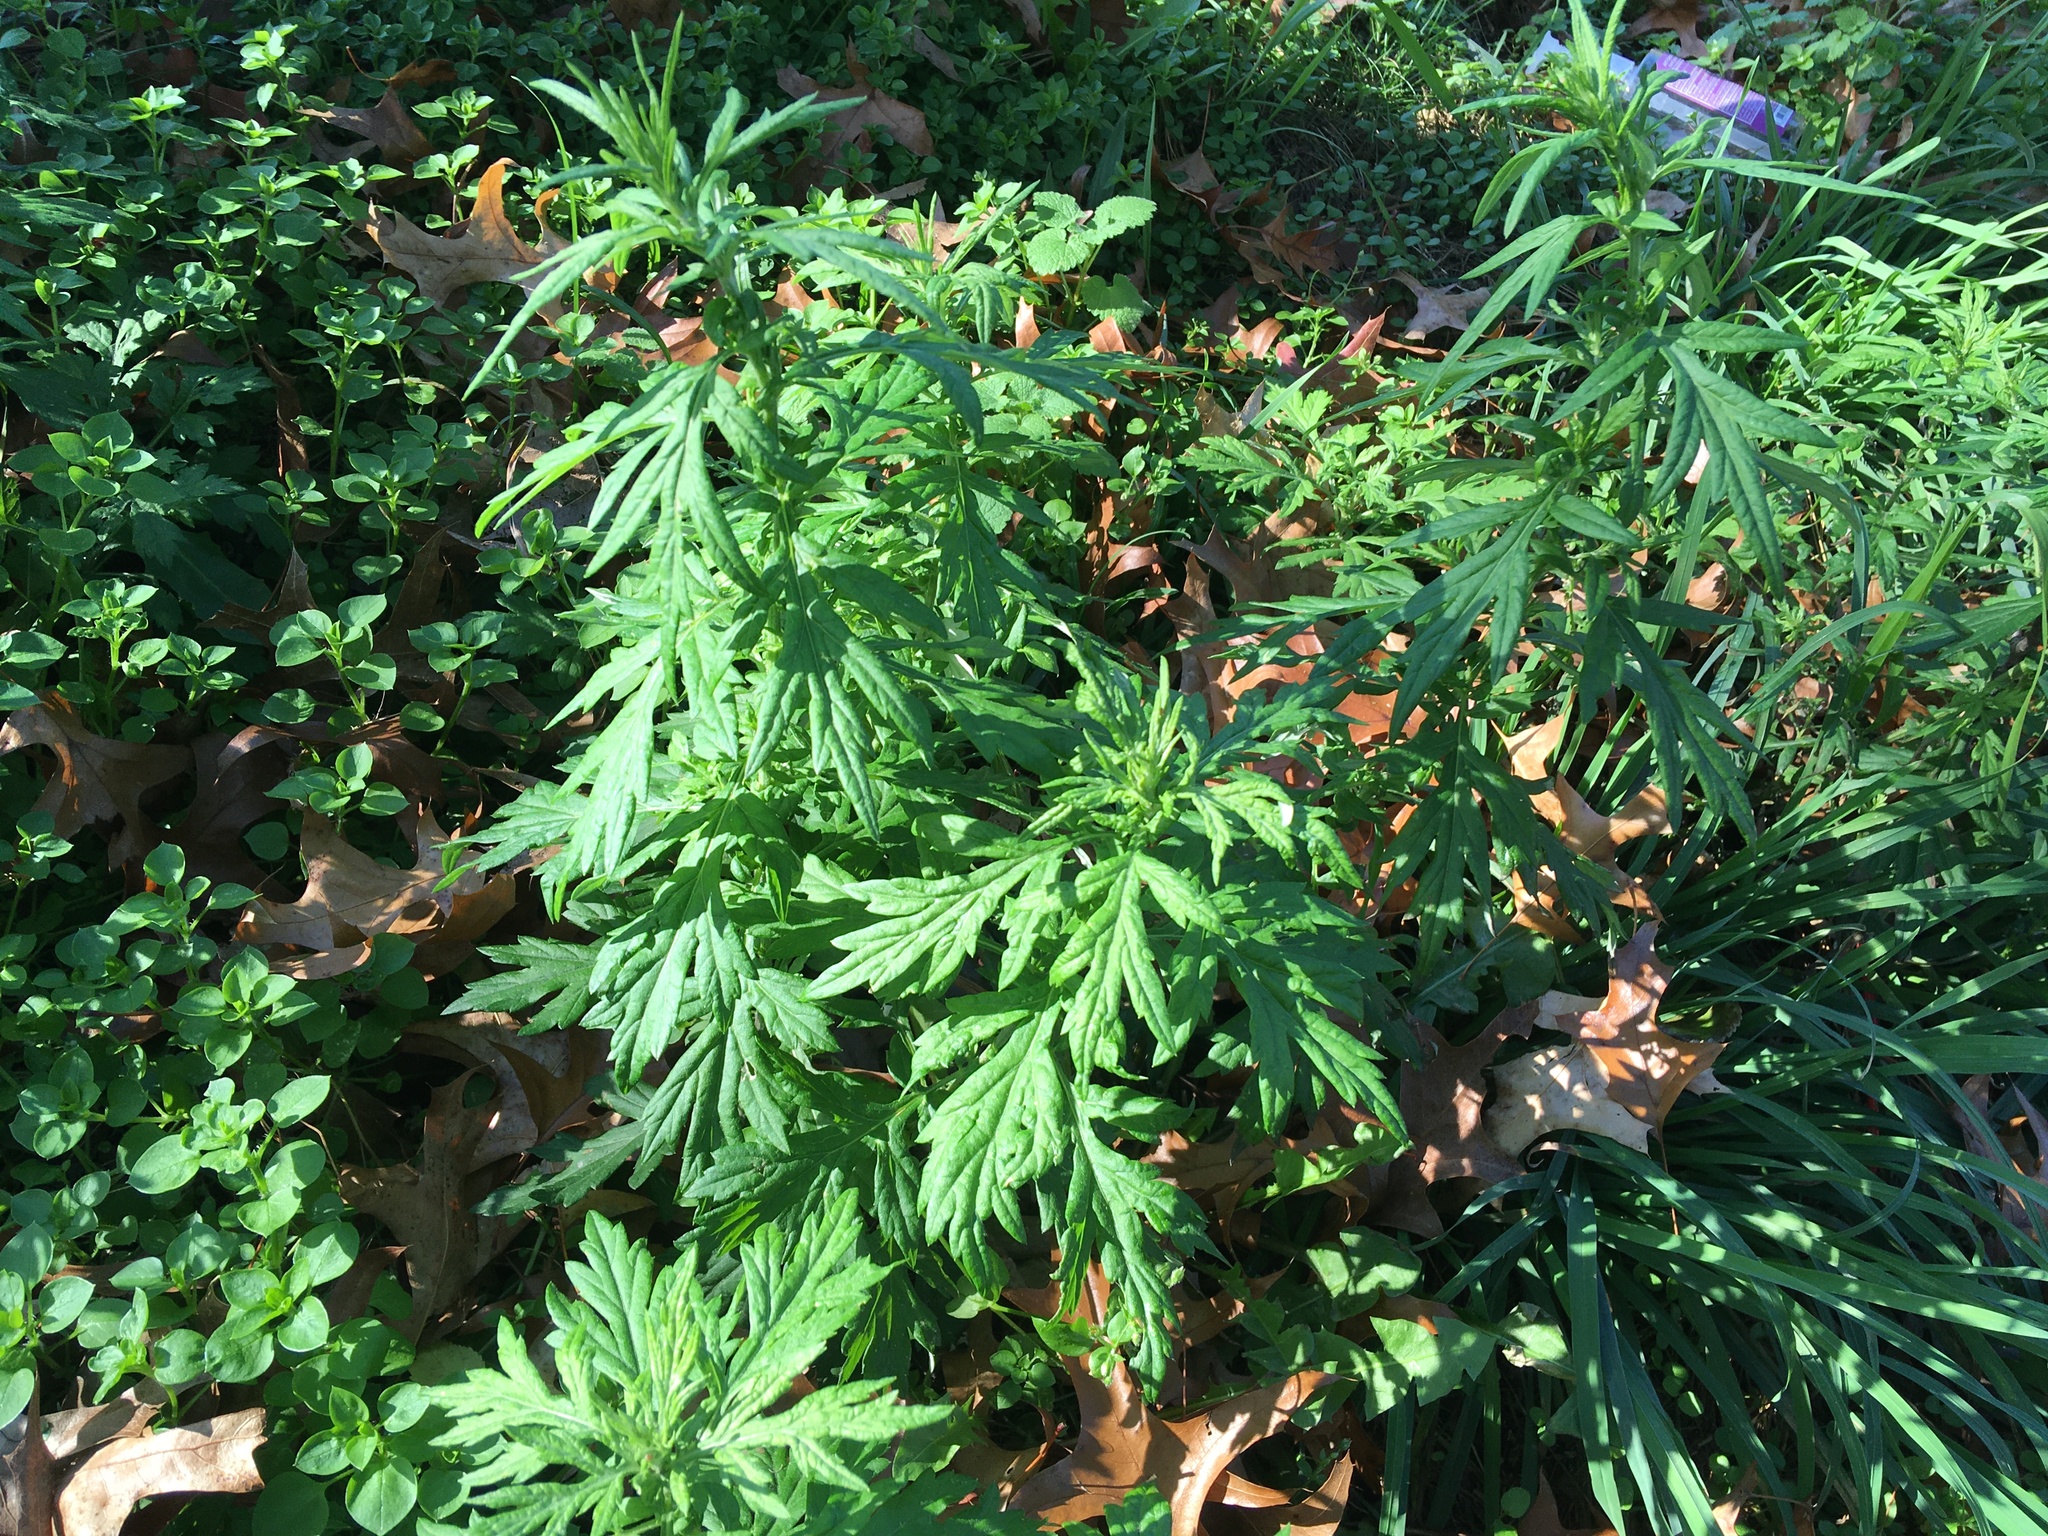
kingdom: Plantae
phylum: Tracheophyta
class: Magnoliopsida
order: Asterales
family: Asteraceae
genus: Artemisia
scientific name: Artemisia vulgaris
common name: Mugwort
